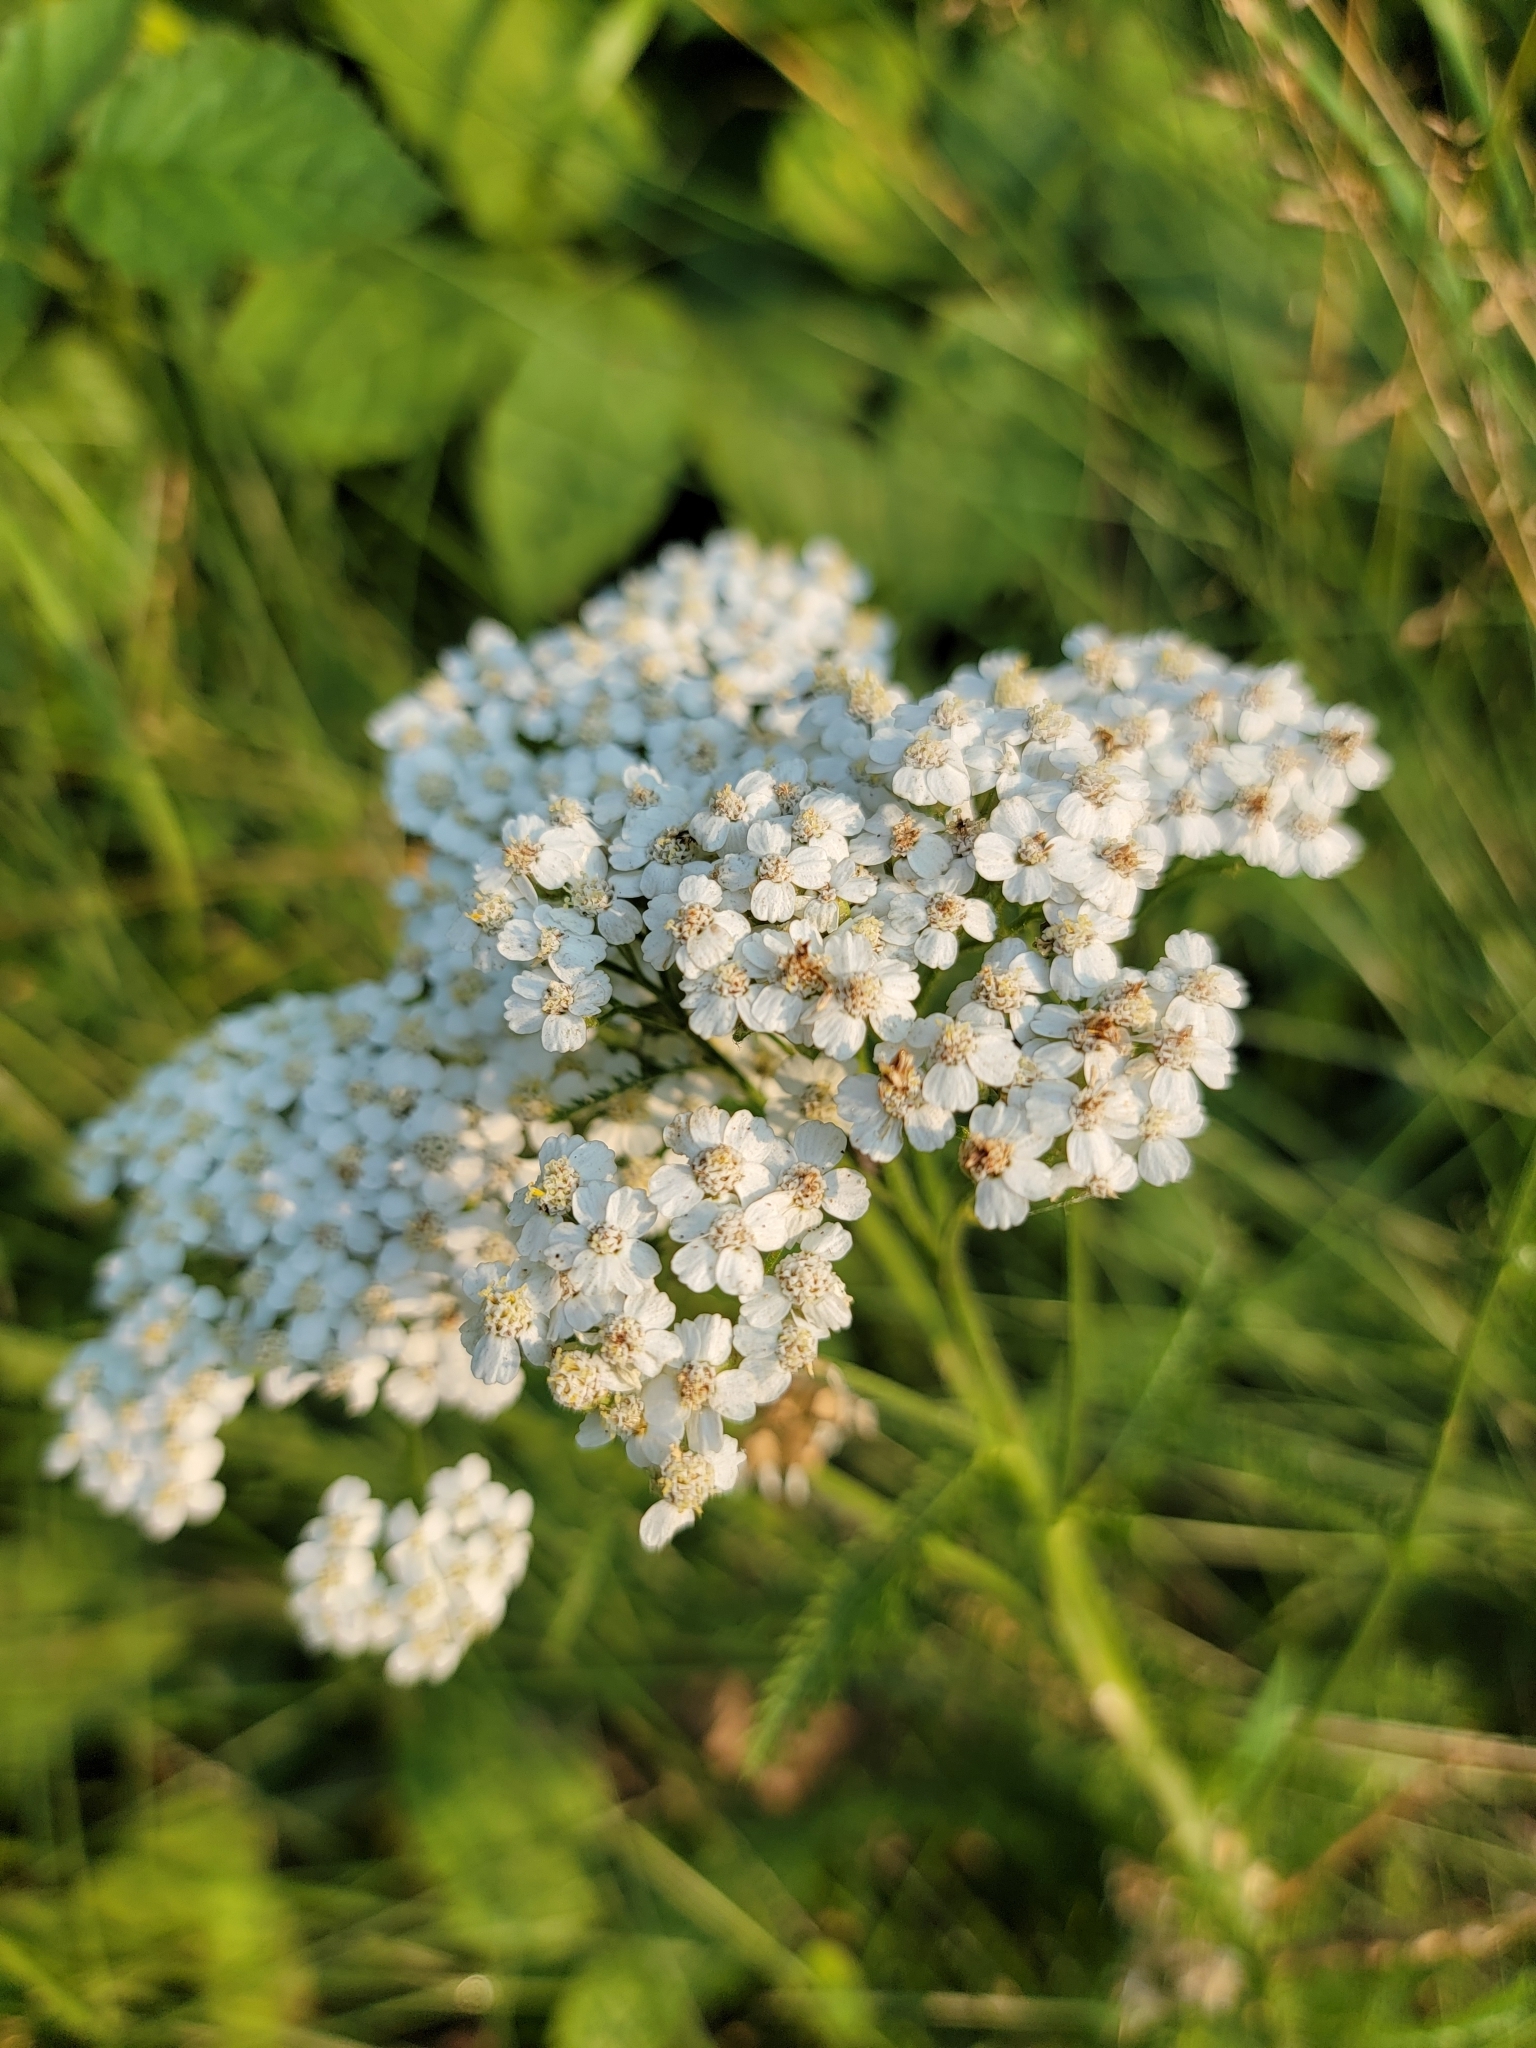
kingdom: Plantae
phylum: Tracheophyta
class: Magnoliopsida
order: Asterales
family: Asteraceae
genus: Achillea
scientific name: Achillea millefolium
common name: Yarrow
